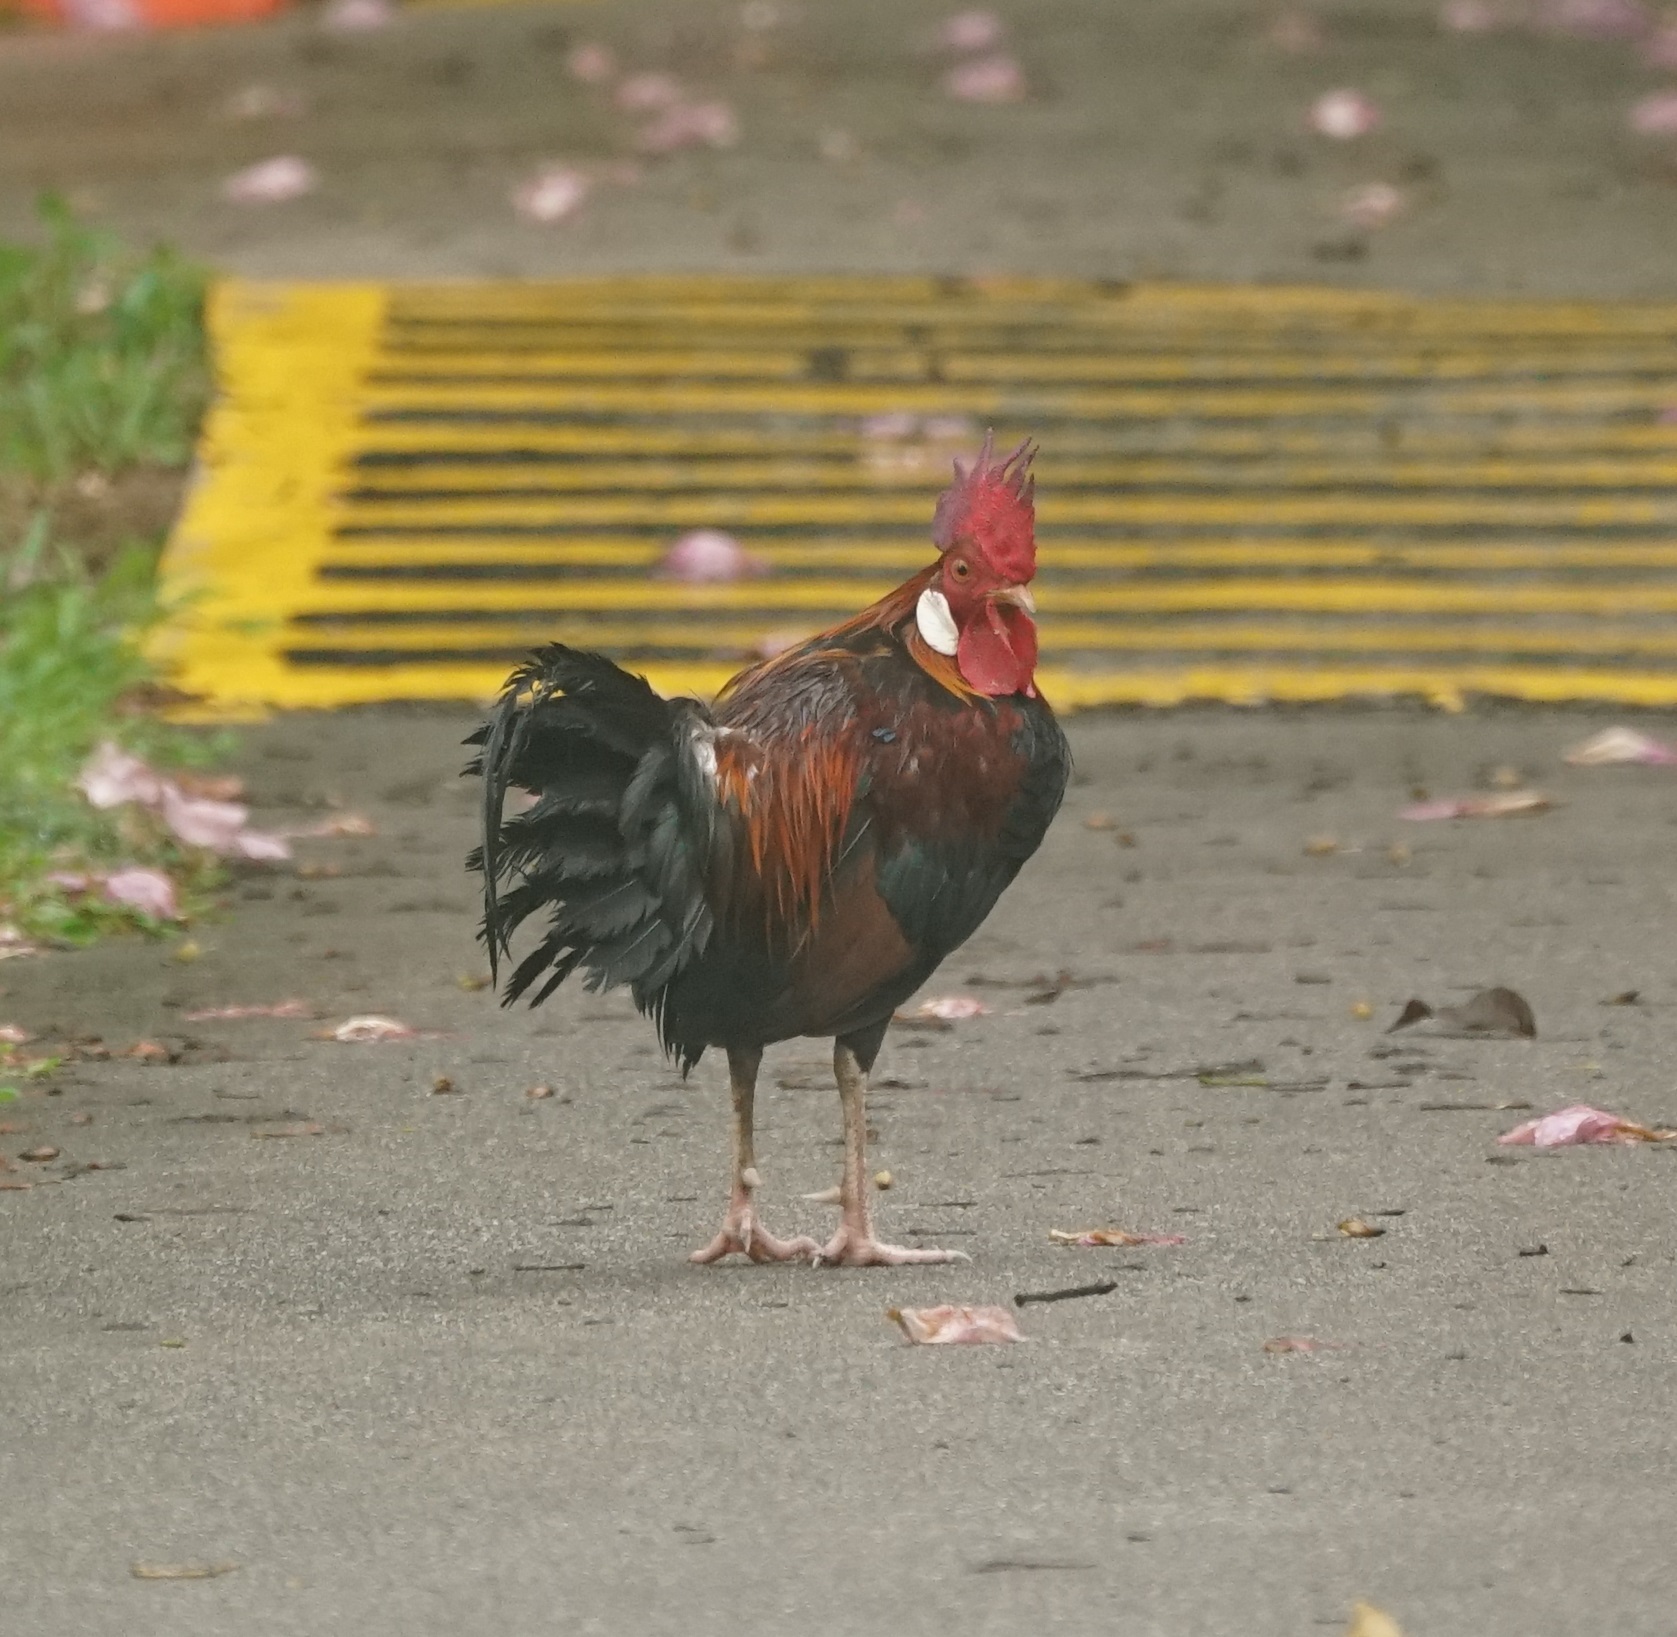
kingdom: Animalia
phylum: Chordata
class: Aves
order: Galliformes
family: Phasianidae
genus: Gallus
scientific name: Gallus gallus
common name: Red junglefowl
